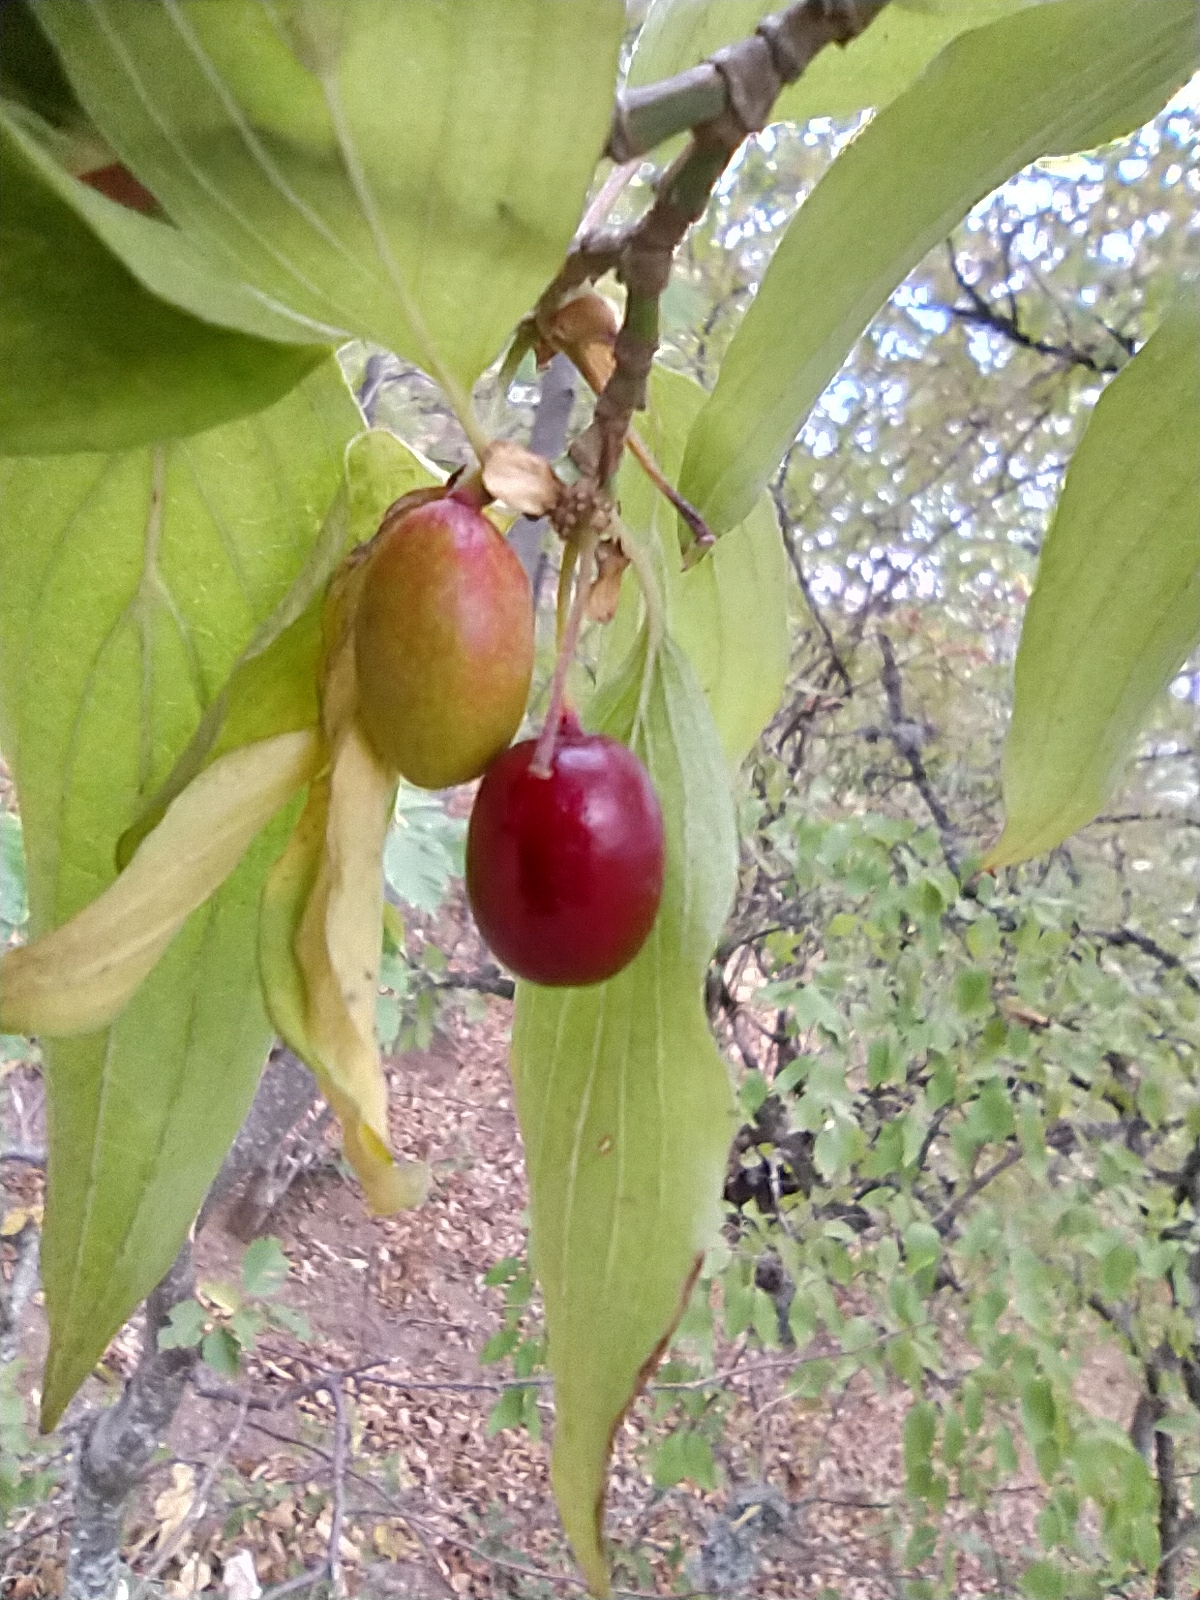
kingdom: Plantae
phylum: Tracheophyta
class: Magnoliopsida
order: Cornales
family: Cornaceae
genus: Cornus
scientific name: Cornus mas
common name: Cornelian-cherry
